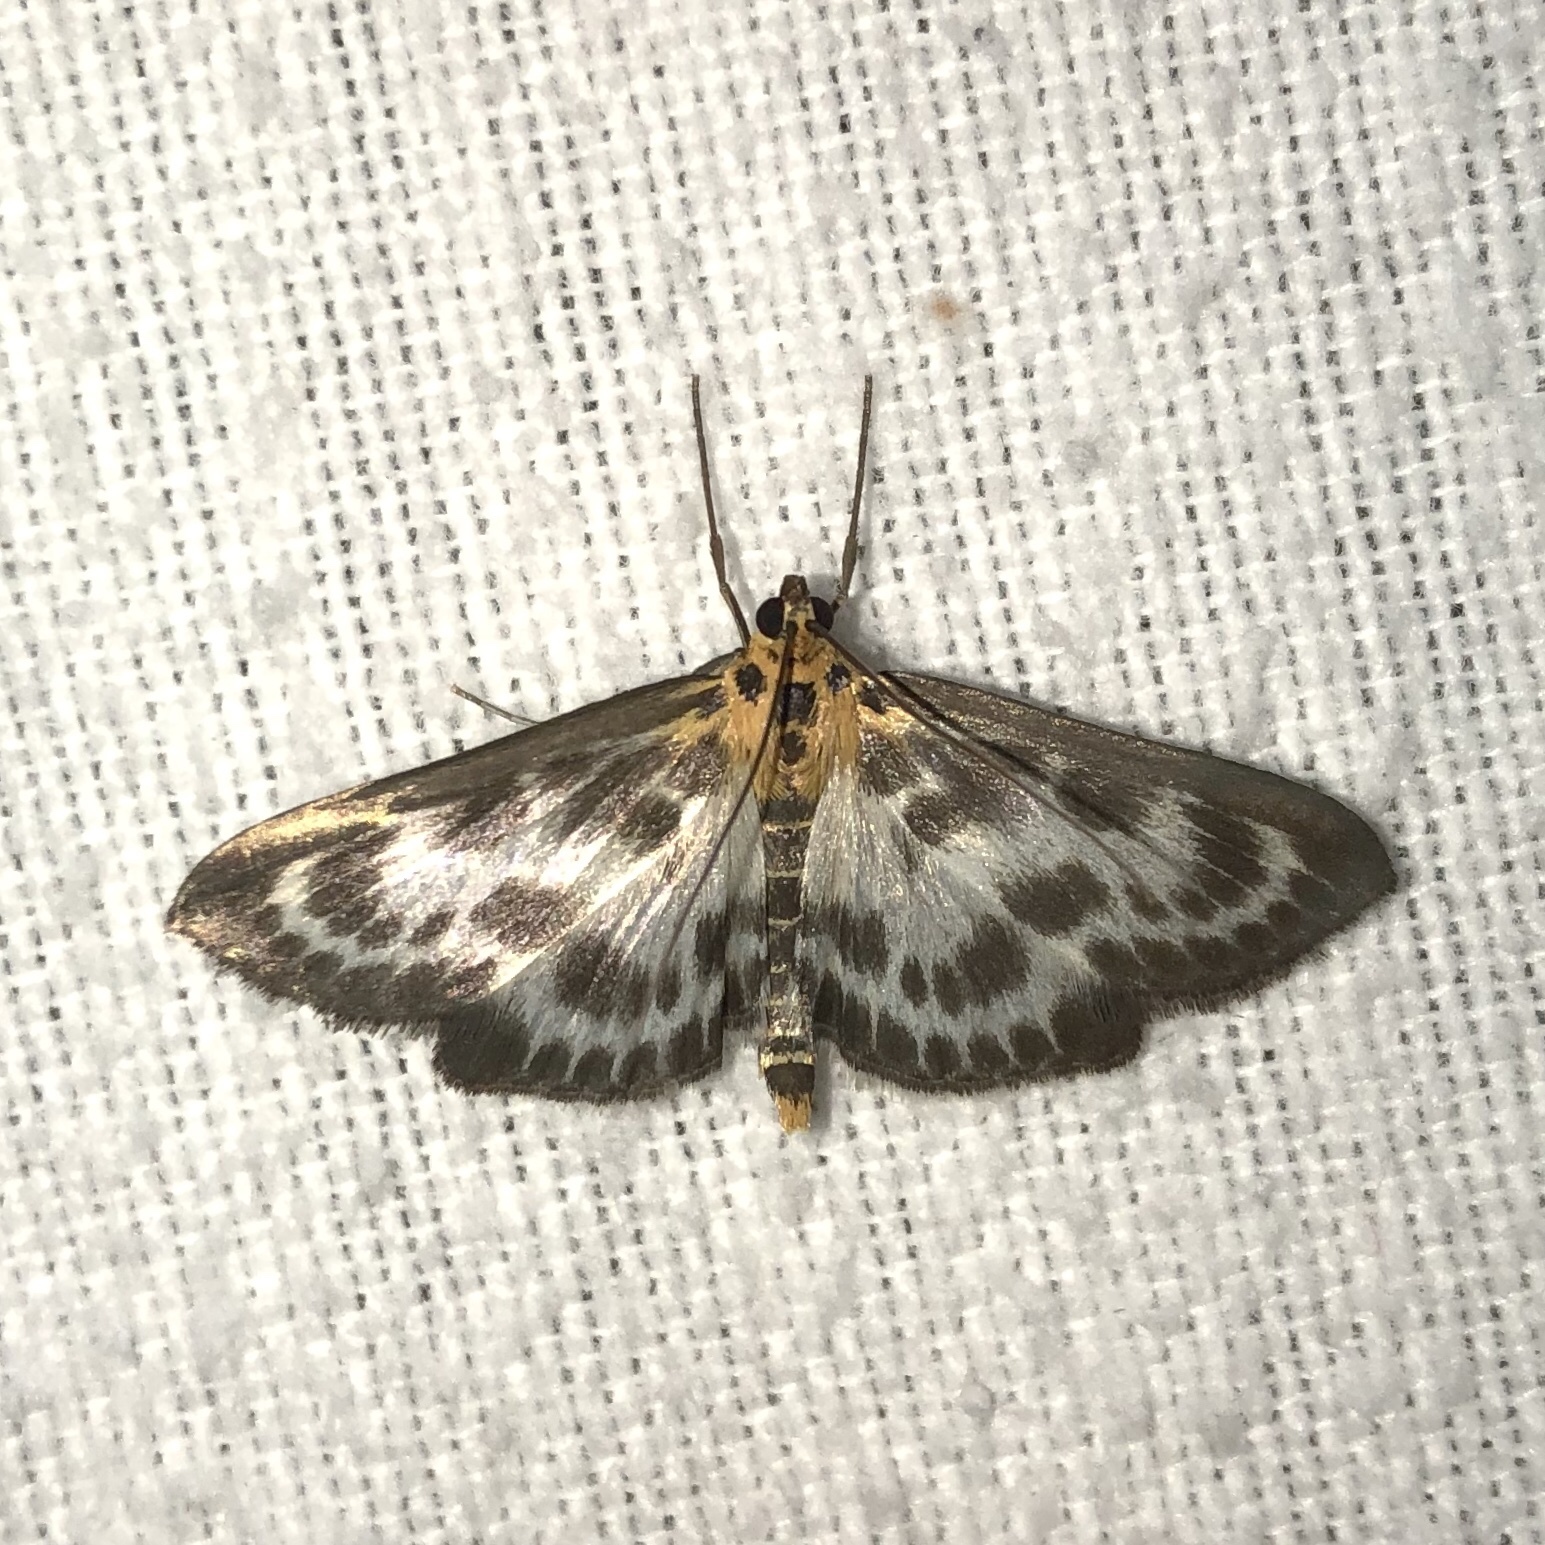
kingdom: Animalia
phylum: Arthropoda
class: Insecta
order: Lepidoptera
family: Crambidae
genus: Anania
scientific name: Anania hortulata
